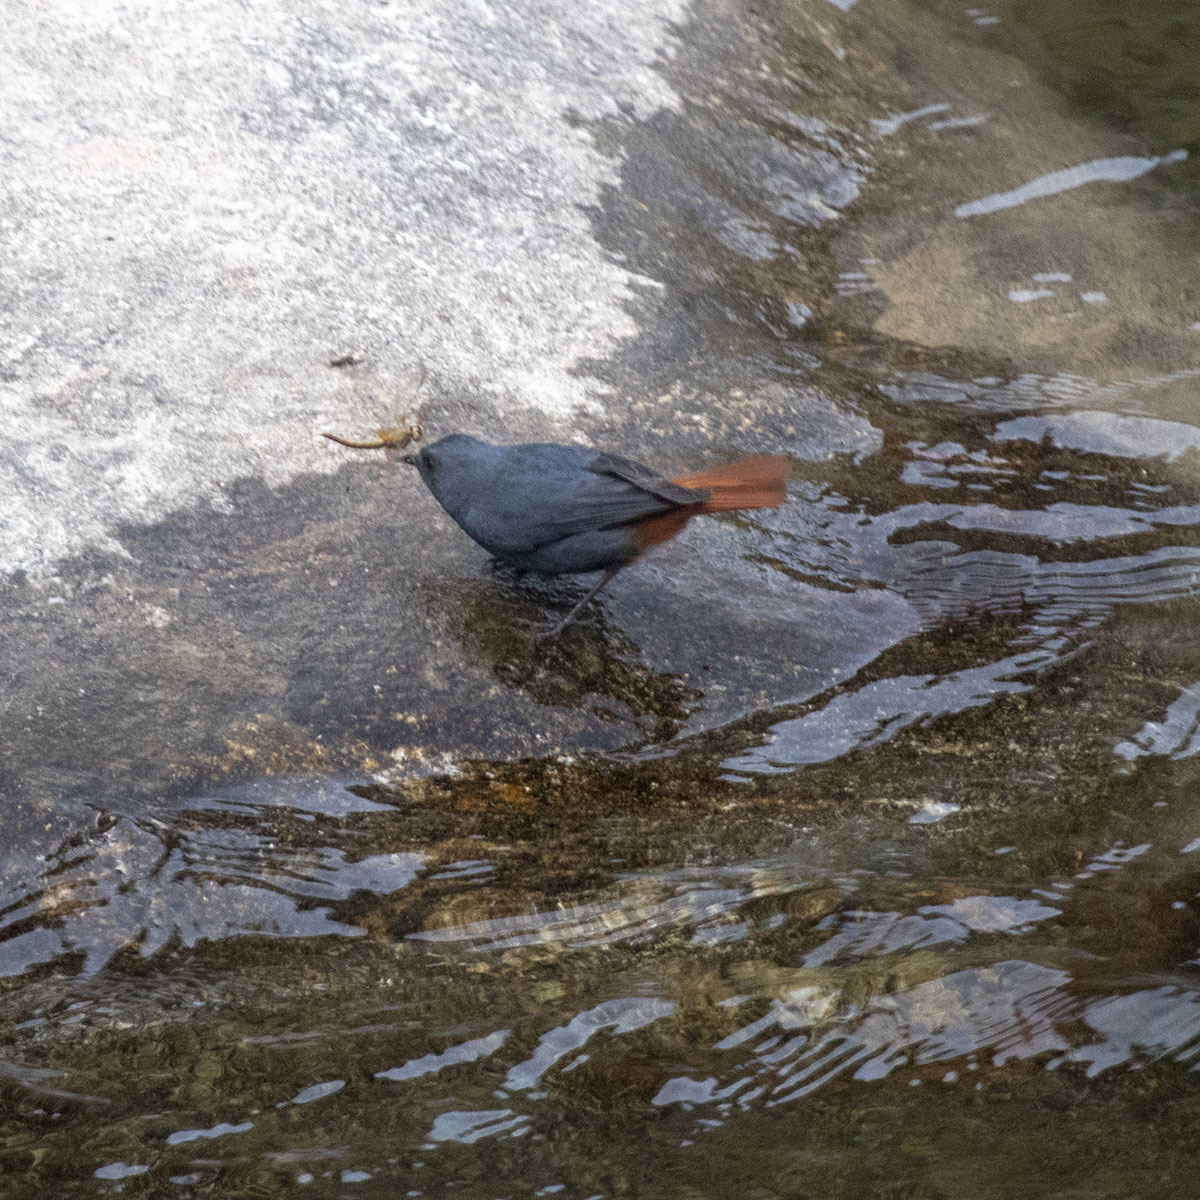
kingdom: Animalia
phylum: Chordata
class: Aves
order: Passeriformes
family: Muscicapidae
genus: Phoenicurus
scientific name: Phoenicurus fuliginosus
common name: Plumbeous water redstart
